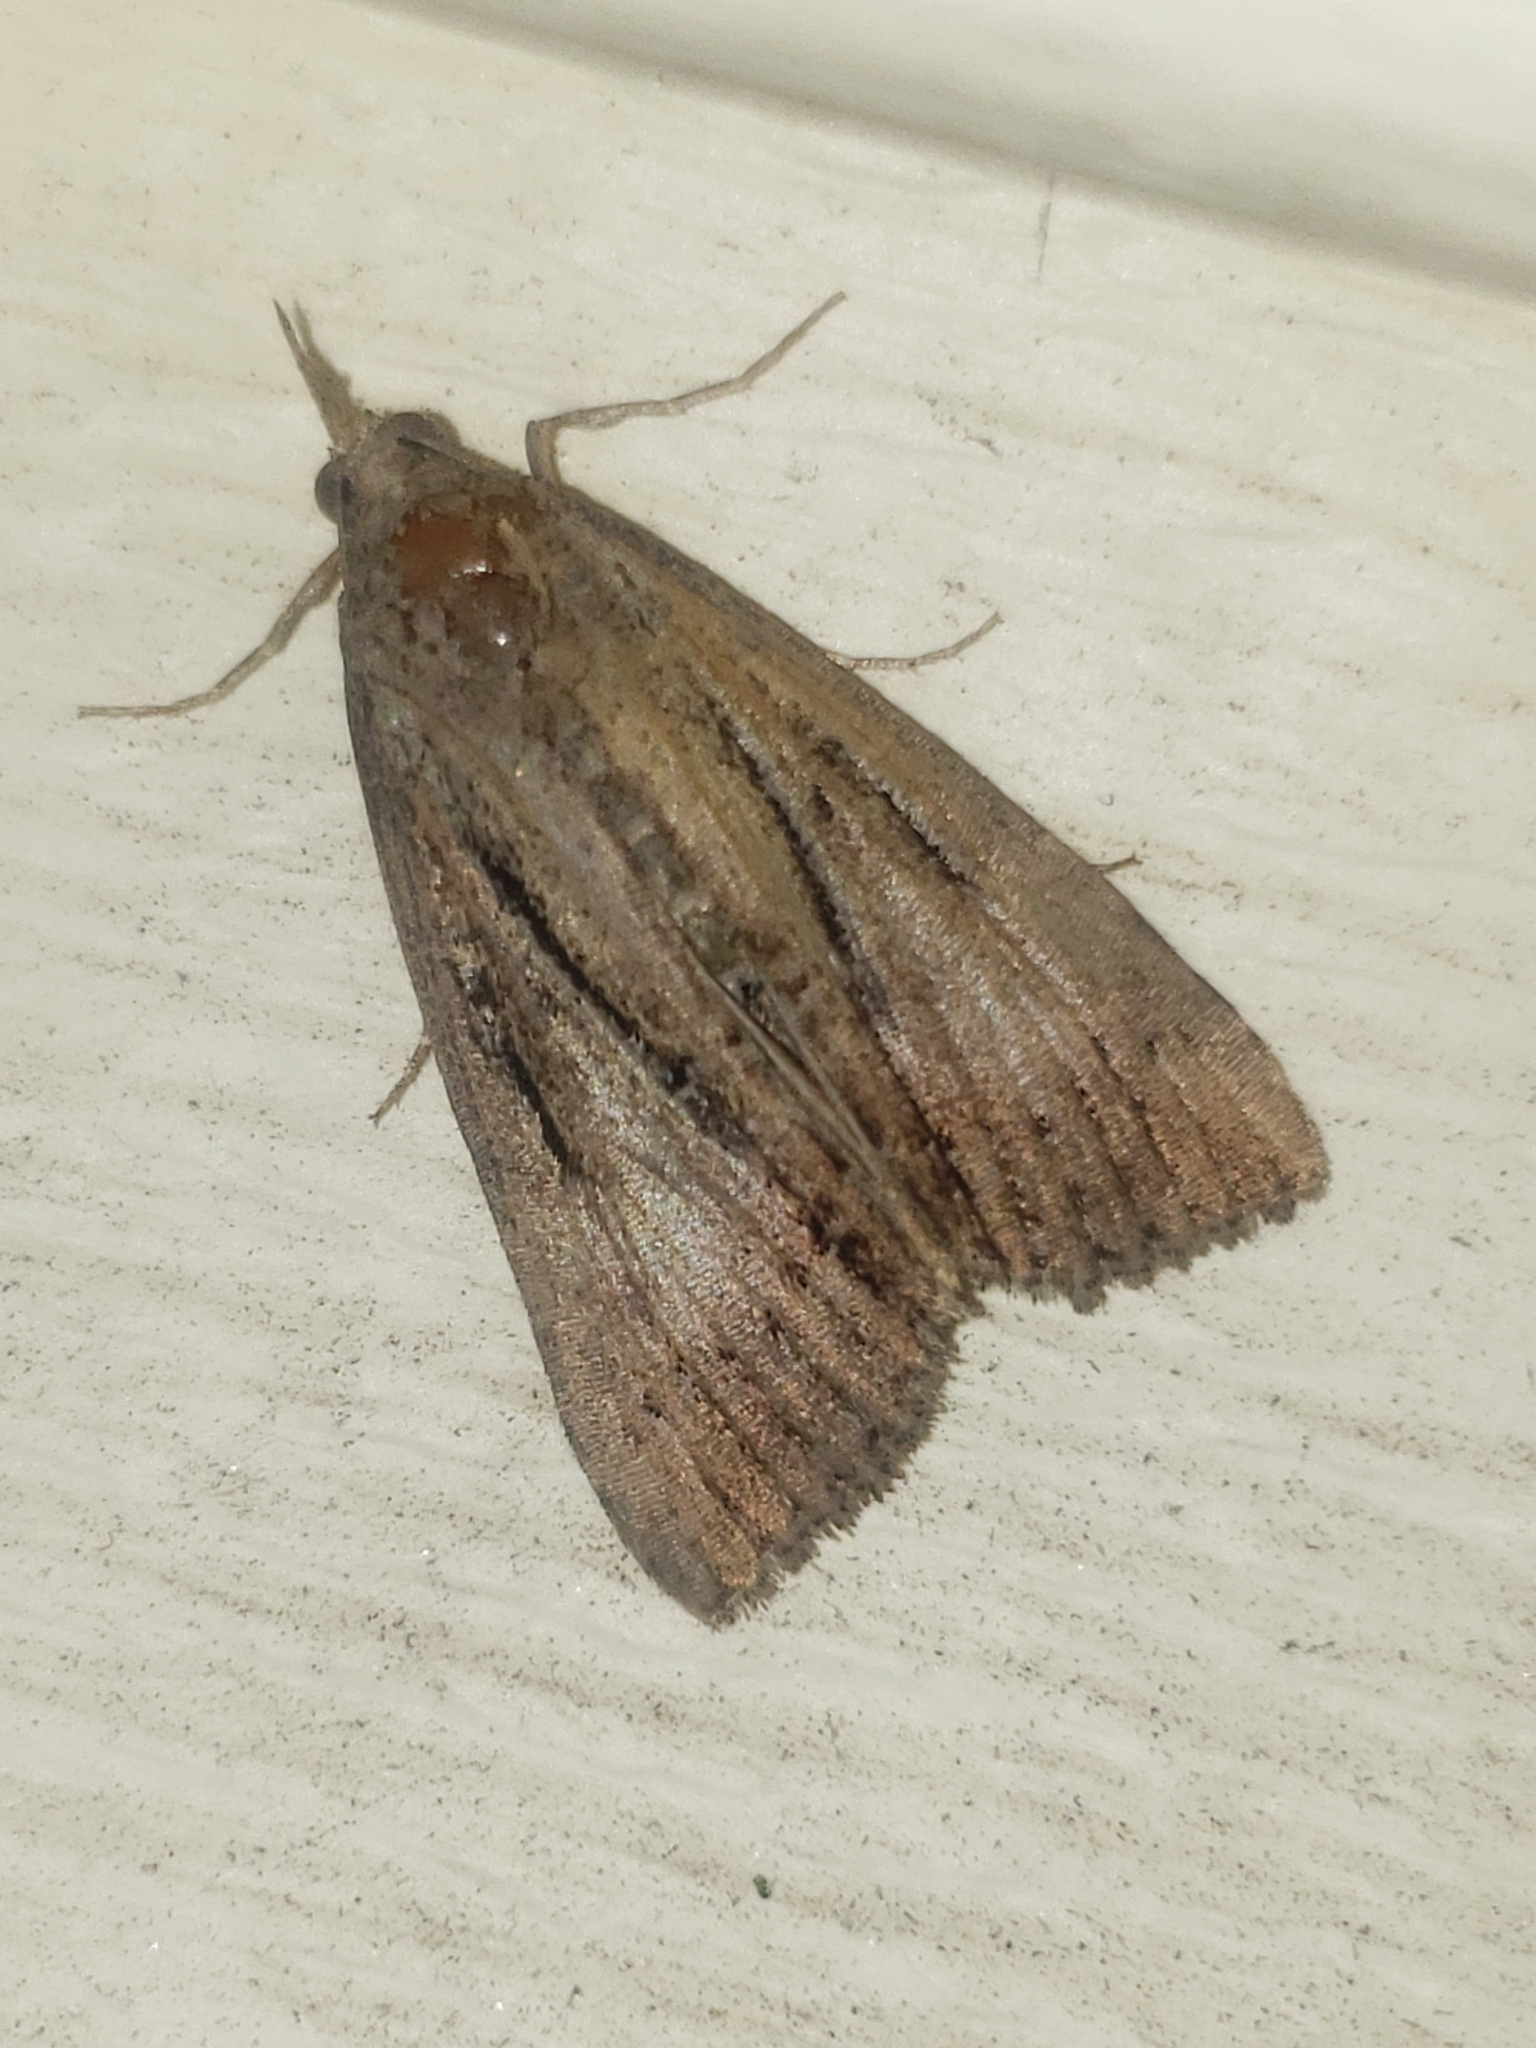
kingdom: Animalia
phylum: Arthropoda
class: Insecta
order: Lepidoptera
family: Erebidae
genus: Hypena
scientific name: Hypena scabra
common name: Green cloverworm
